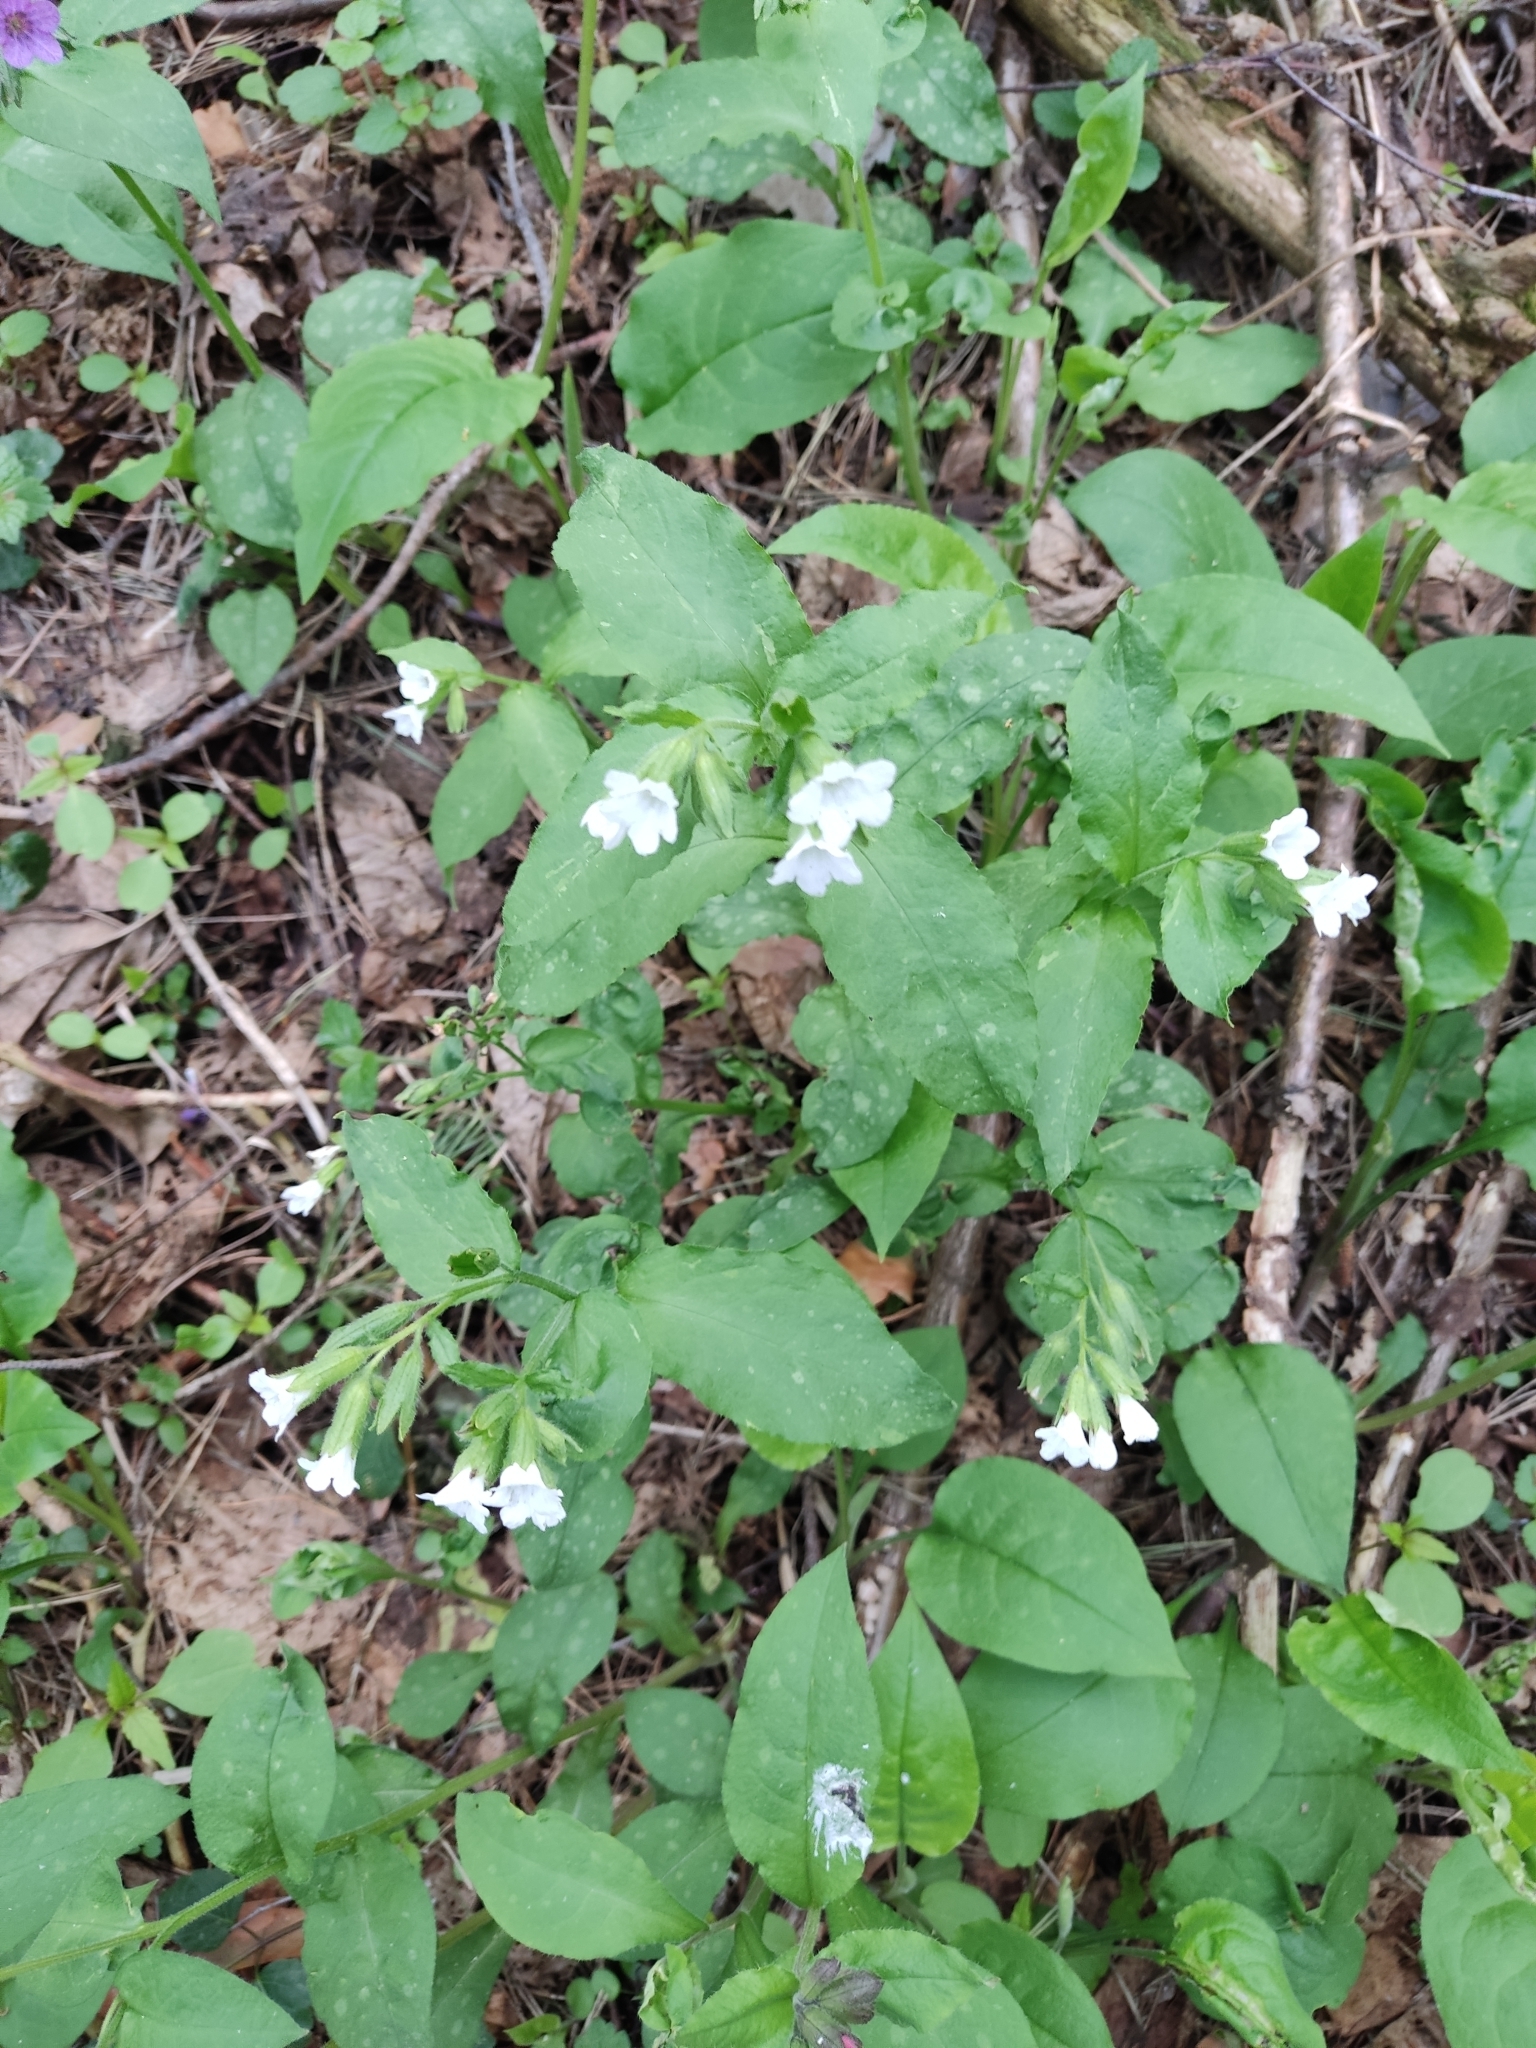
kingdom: Plantae
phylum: Tracheophyta
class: Magnoliopsida
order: Boraginales
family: Boraginaceae
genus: Pulmonaria
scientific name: Pulmonaria obscura
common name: Suffolk lungwort
